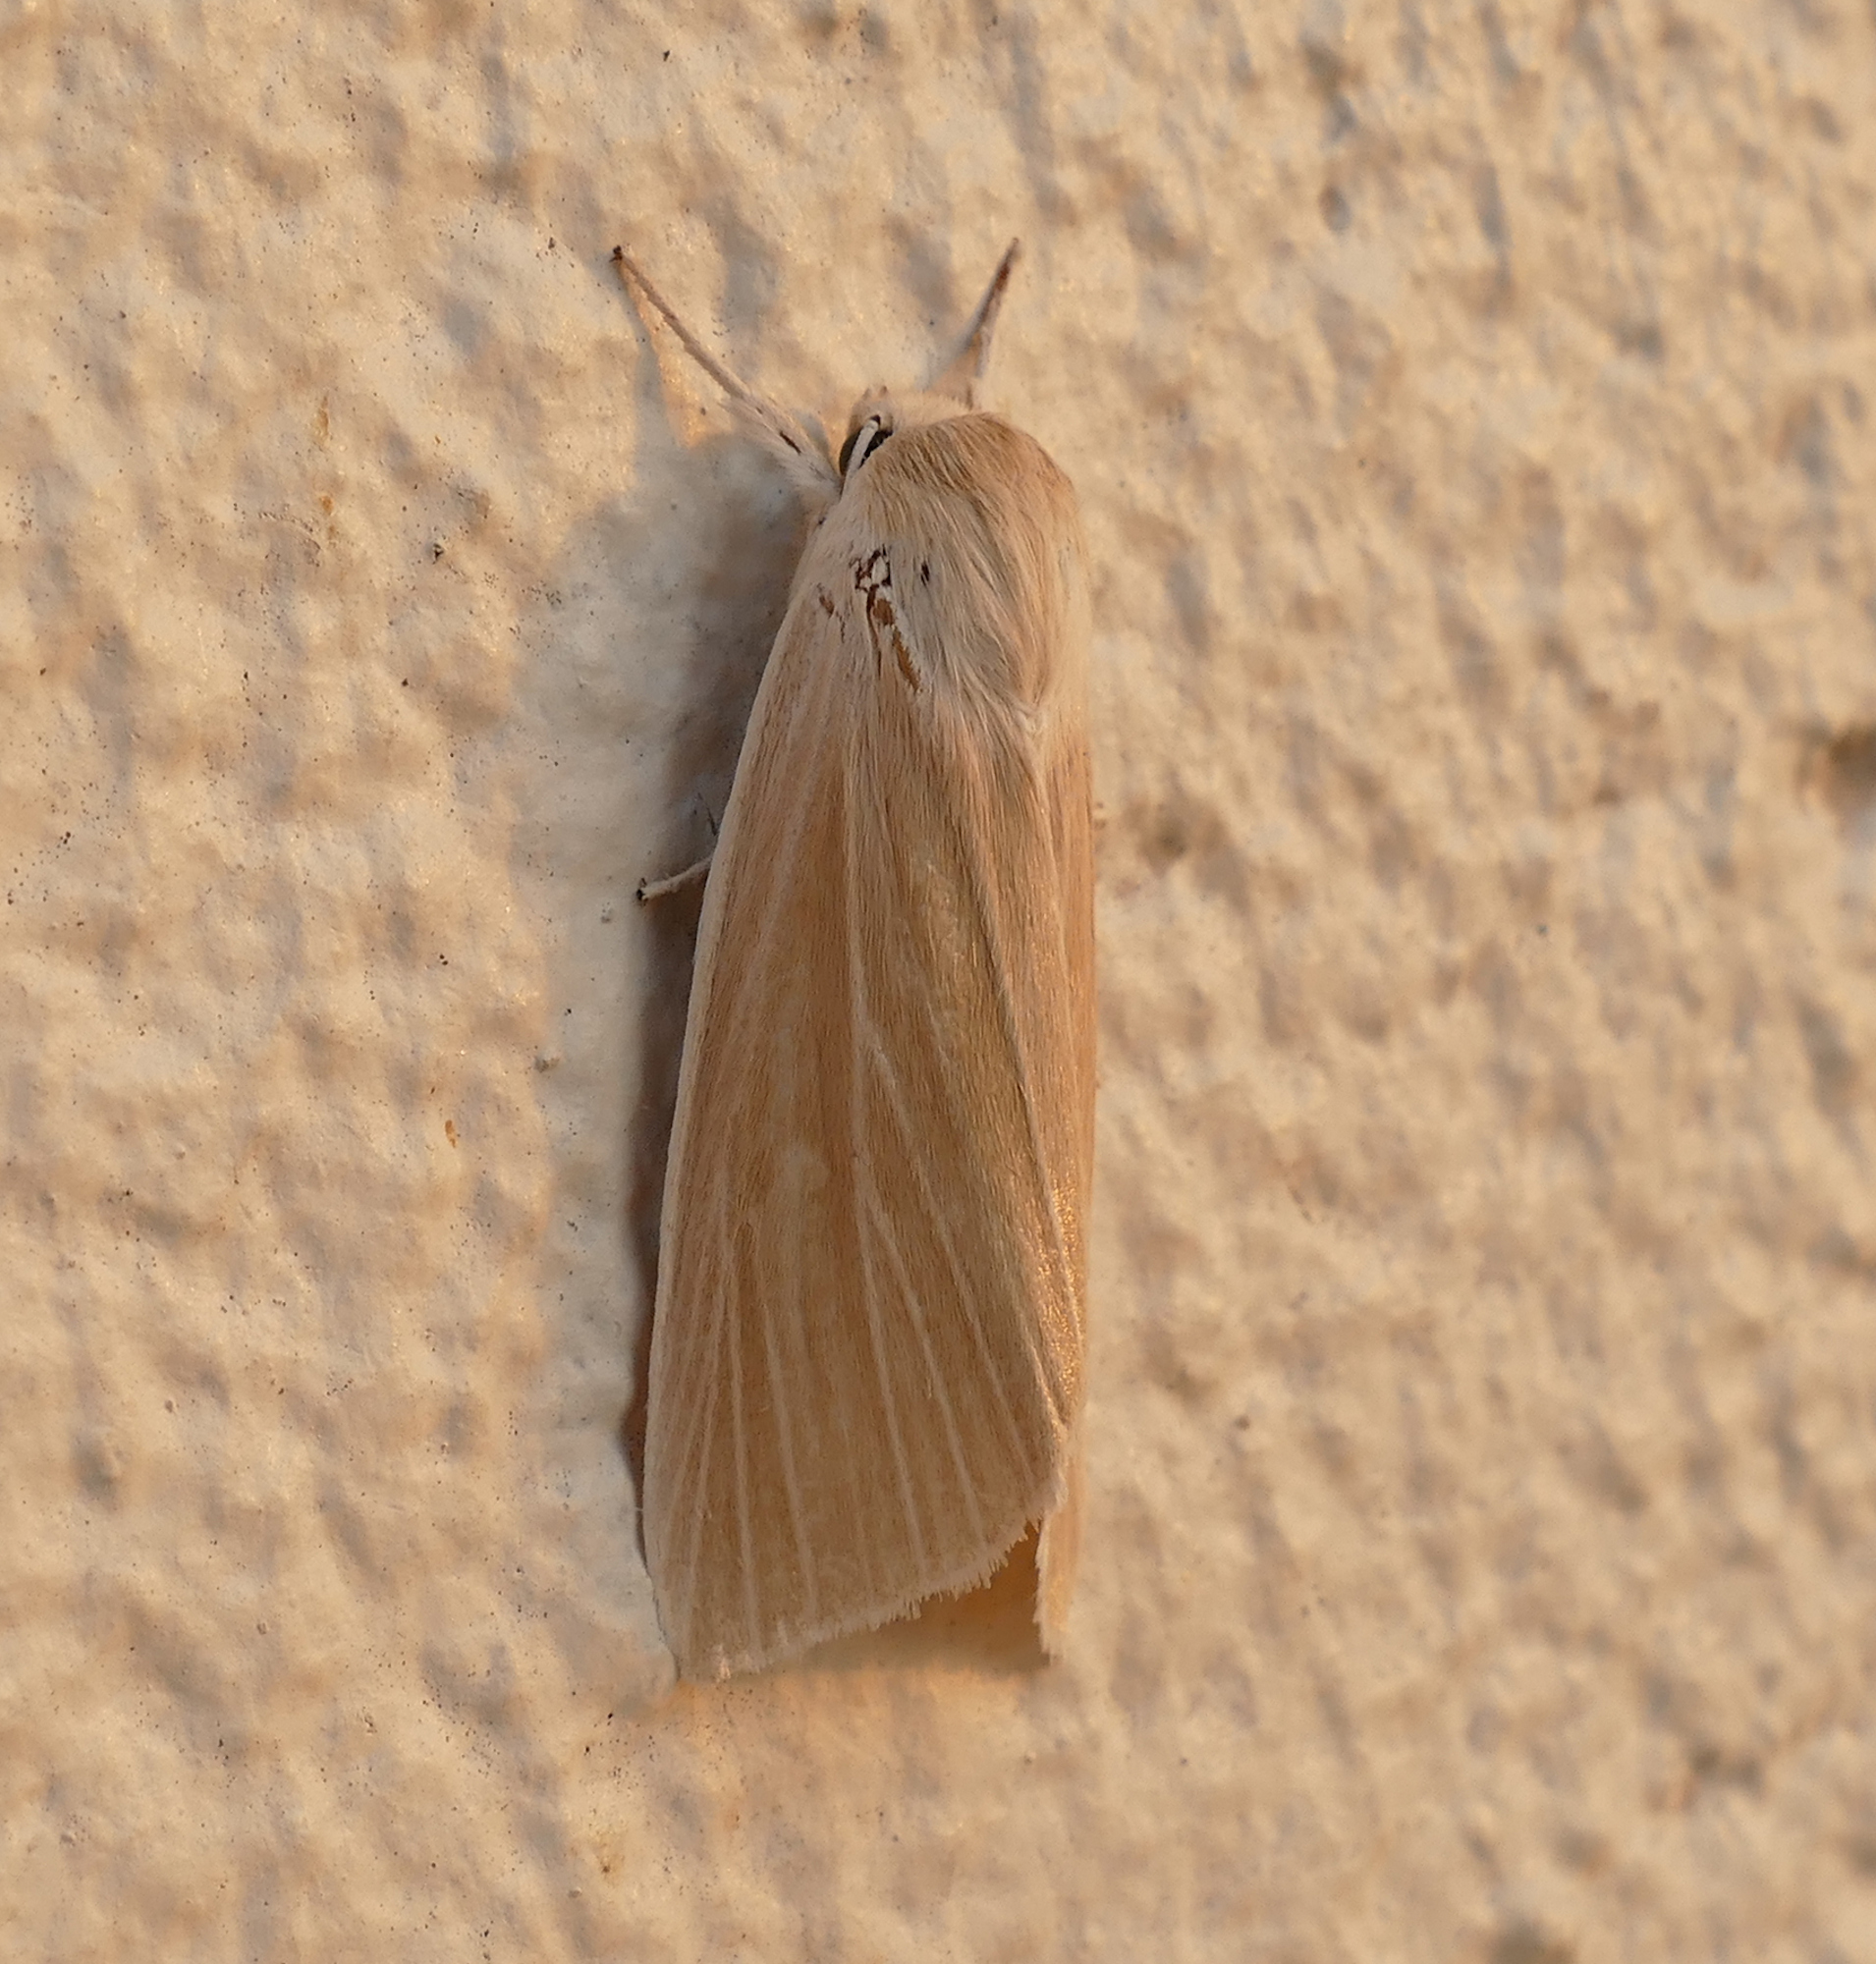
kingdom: Animalia
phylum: Arthropoda
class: Insecta
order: Lepidoptera
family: Noctuidae
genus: Acronicta
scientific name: Acronicta insularis
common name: Henry's marsh moth
